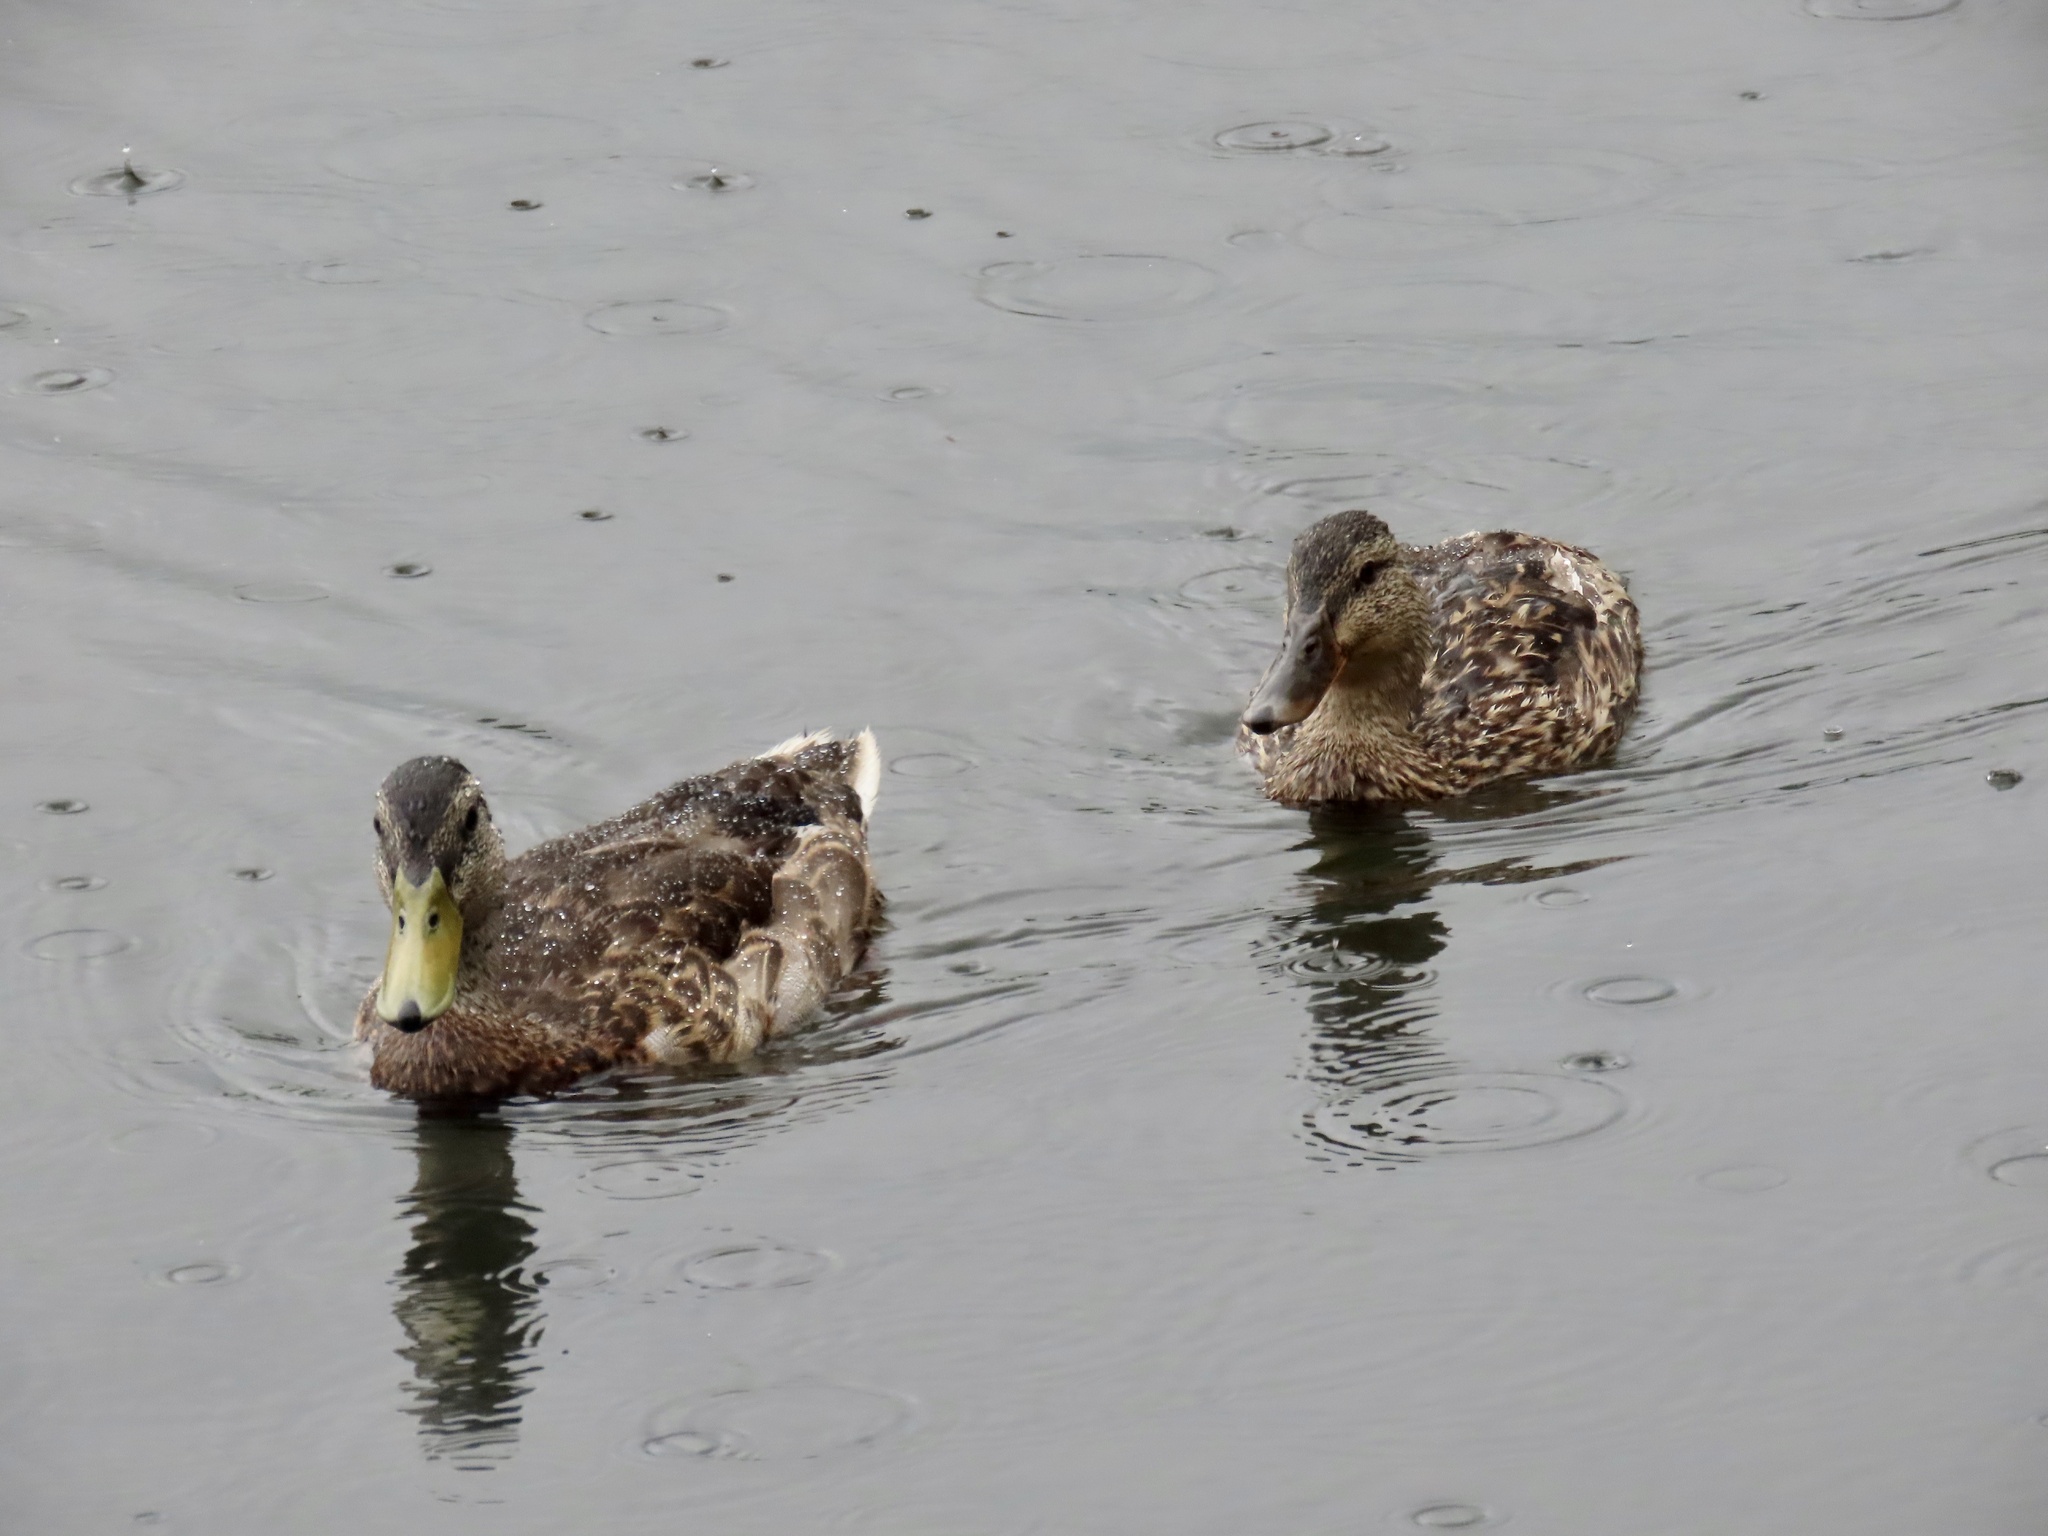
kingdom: Animalia
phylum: Chordata
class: Aves
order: Anseriformes
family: Anatidae
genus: Anas
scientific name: Anas platyrhynchos
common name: Mallard
